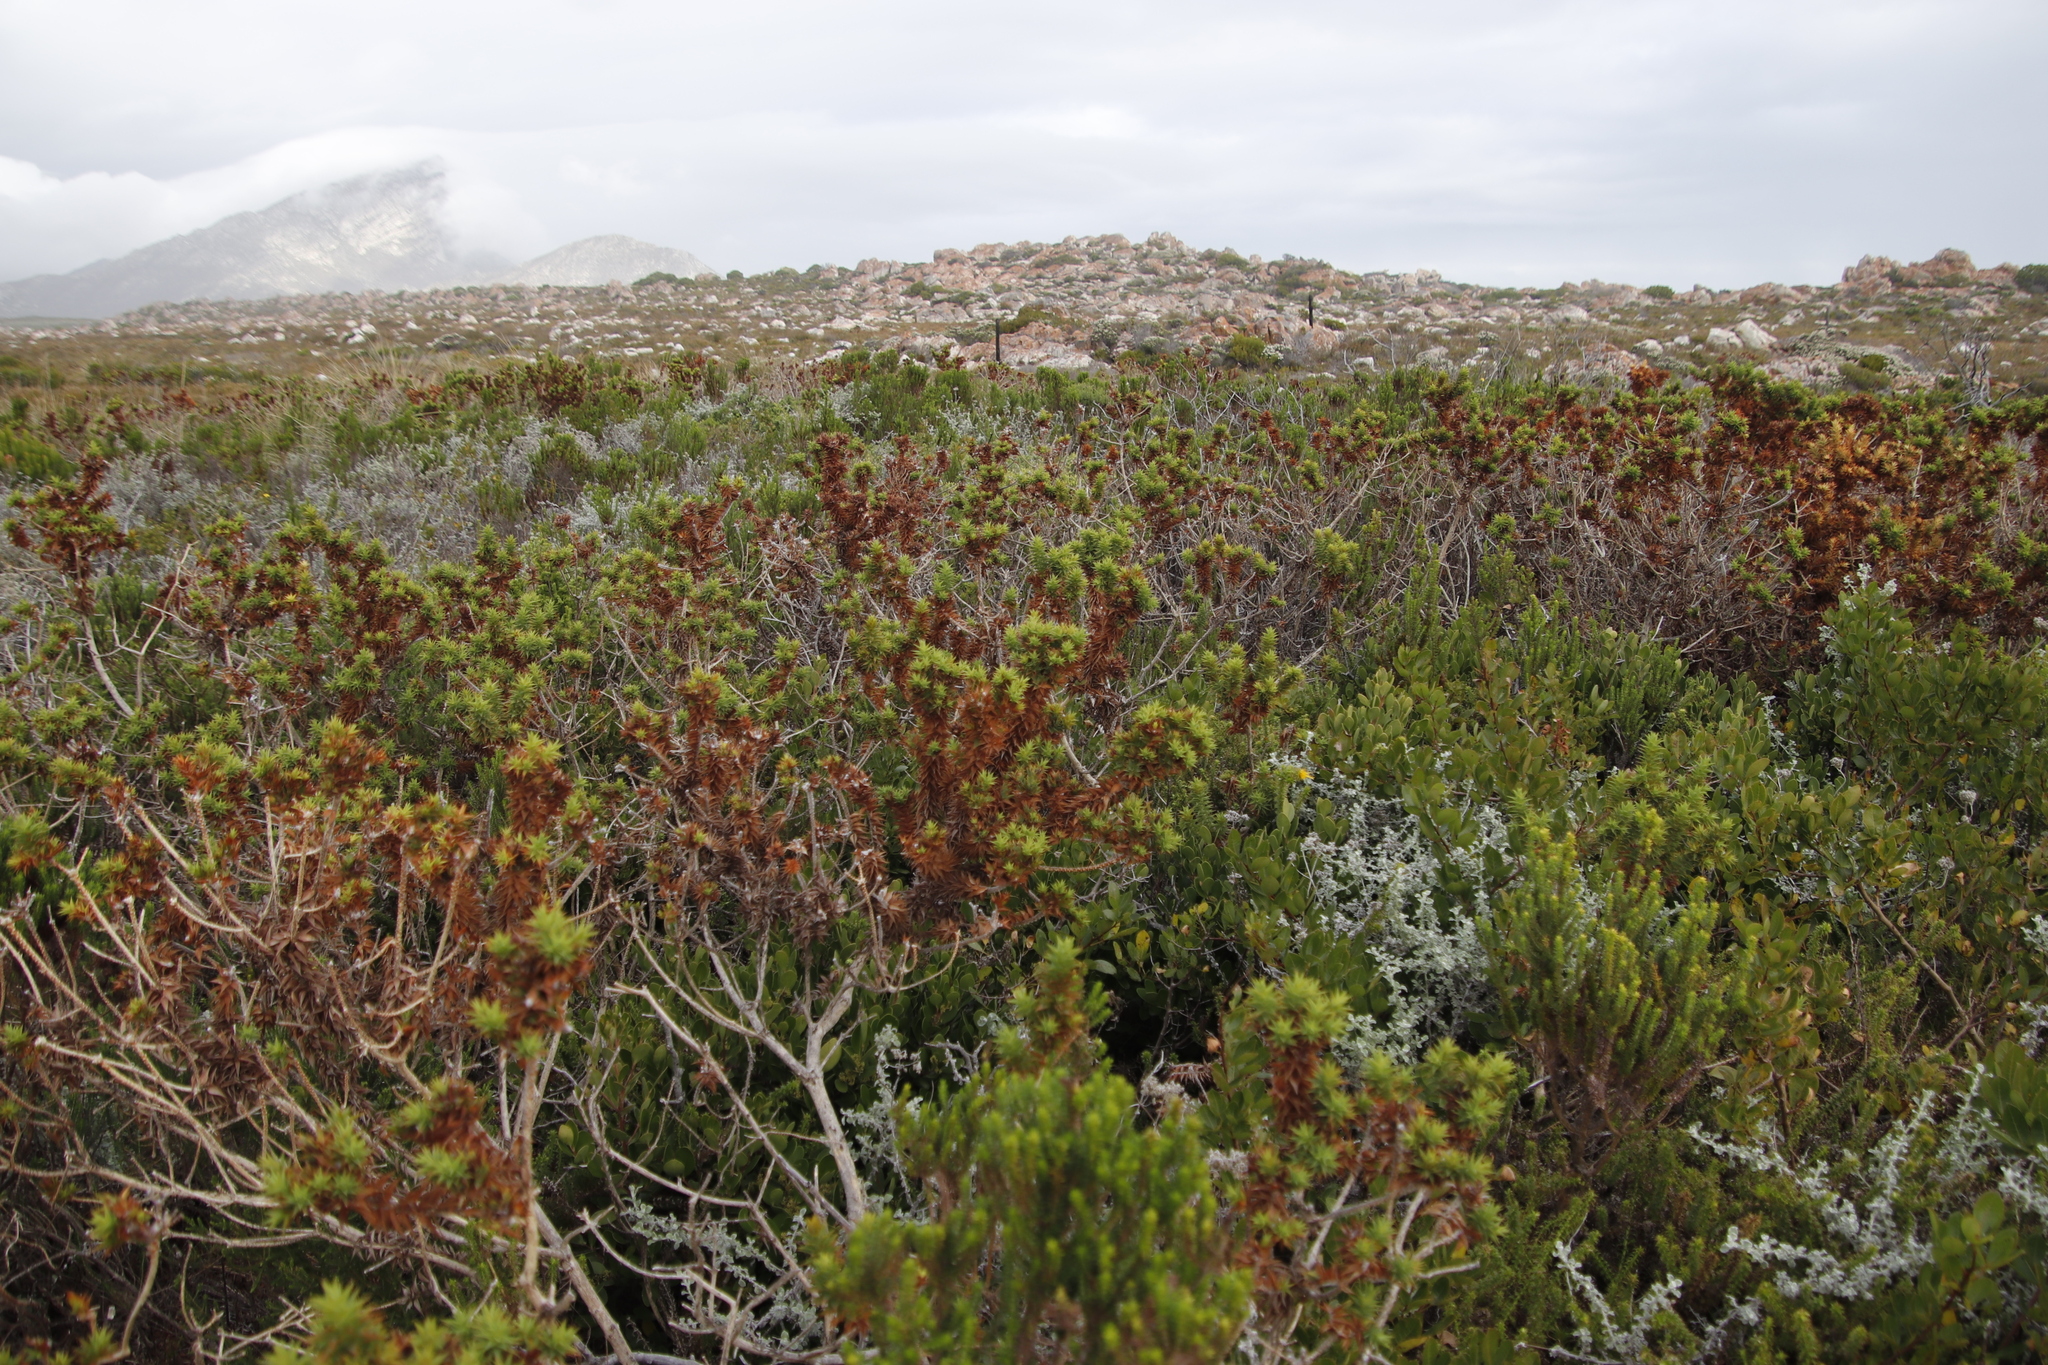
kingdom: Plantae
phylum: Tracheophyta
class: Magnoliopsida
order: Fabales
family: Fabaceae
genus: Aspalathus
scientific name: Aspalathus cordata
